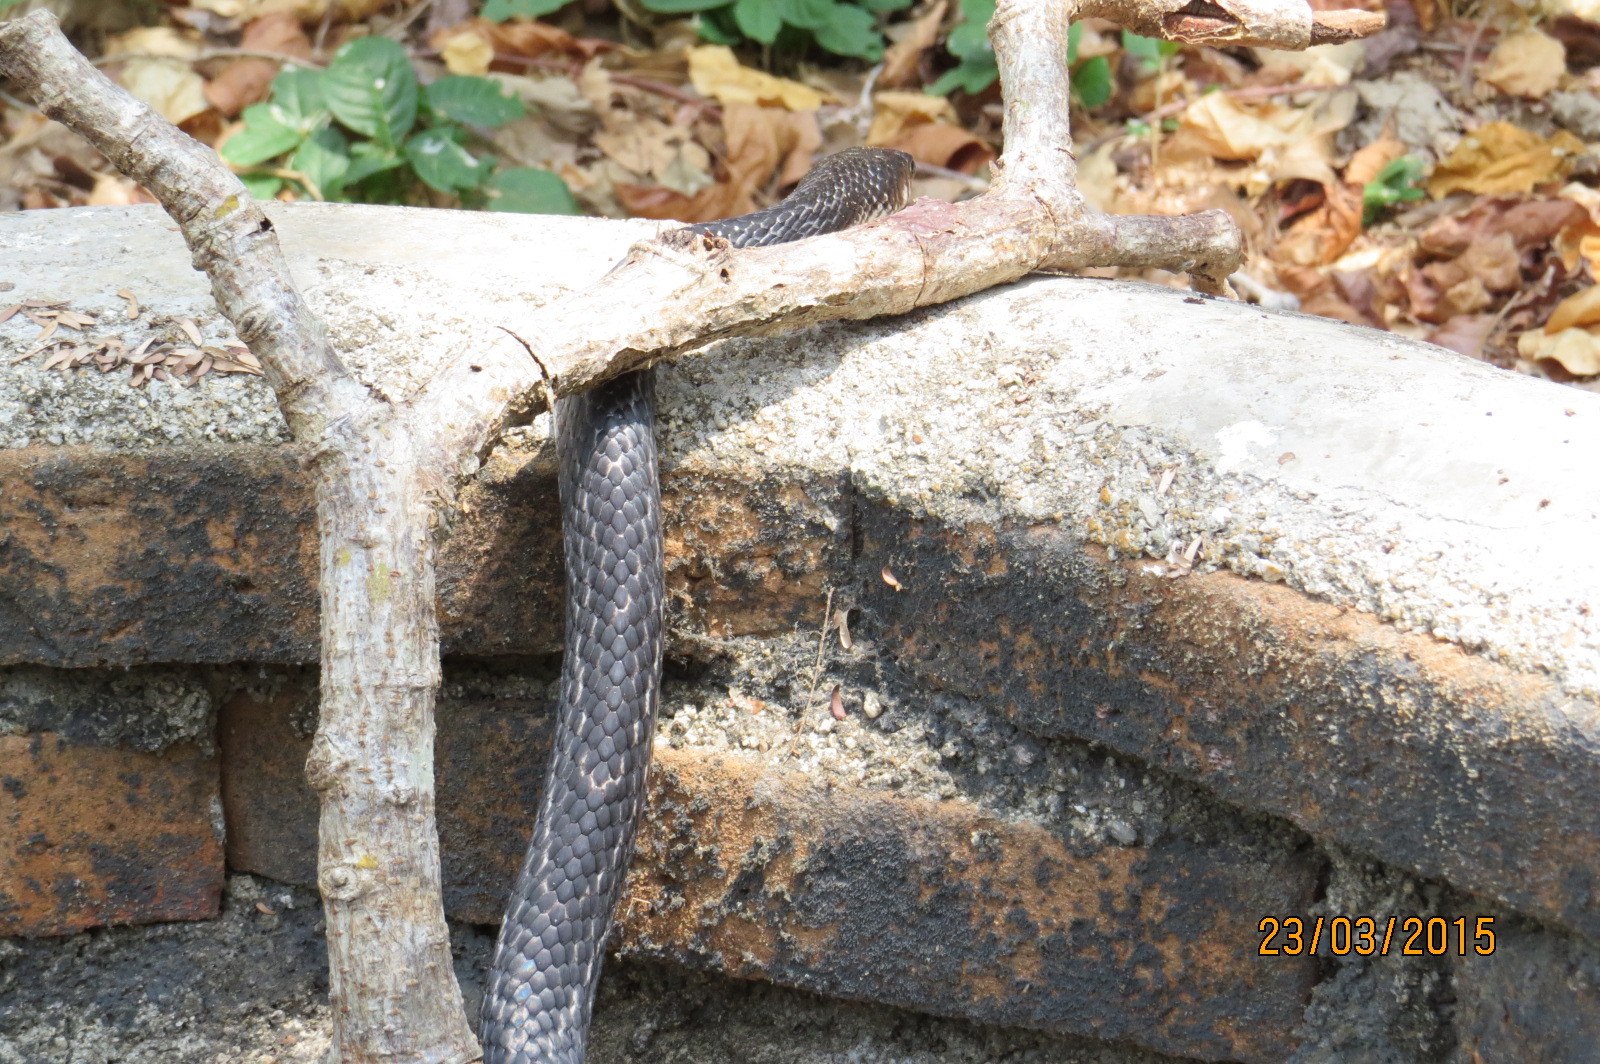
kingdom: Animalia
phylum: Chordata
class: Squamata
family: Colubridae
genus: Drymarchon
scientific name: Drymarchon melanurus
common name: Central american indigo snake
